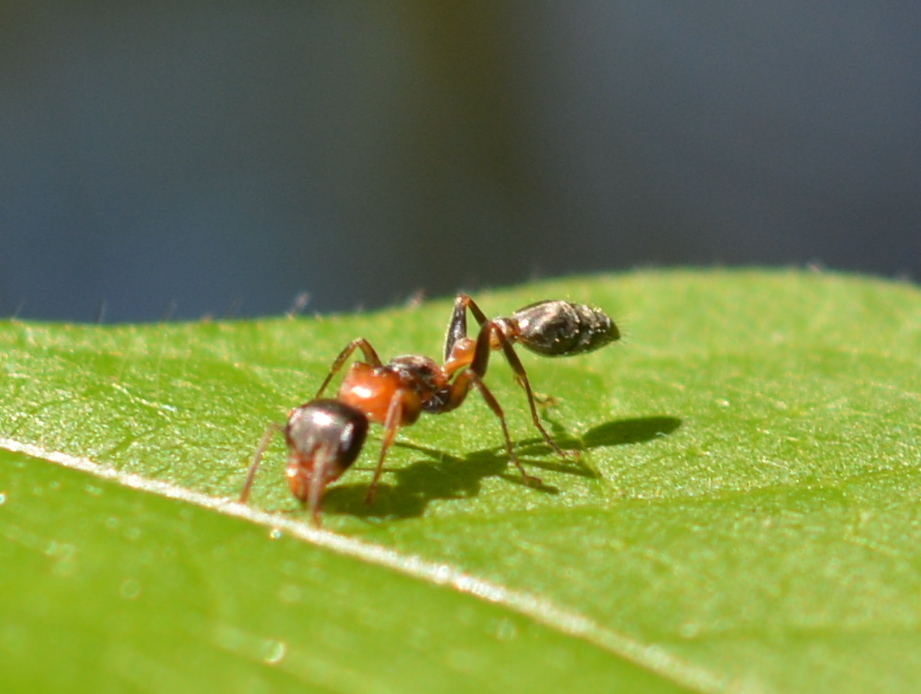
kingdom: Animalia
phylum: Arthropoda
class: Insecta
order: Hymenoptera
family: Formicidae
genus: Pseudomyrmex
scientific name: Pseudomyrmex gracilis
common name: Graceful twig ant
